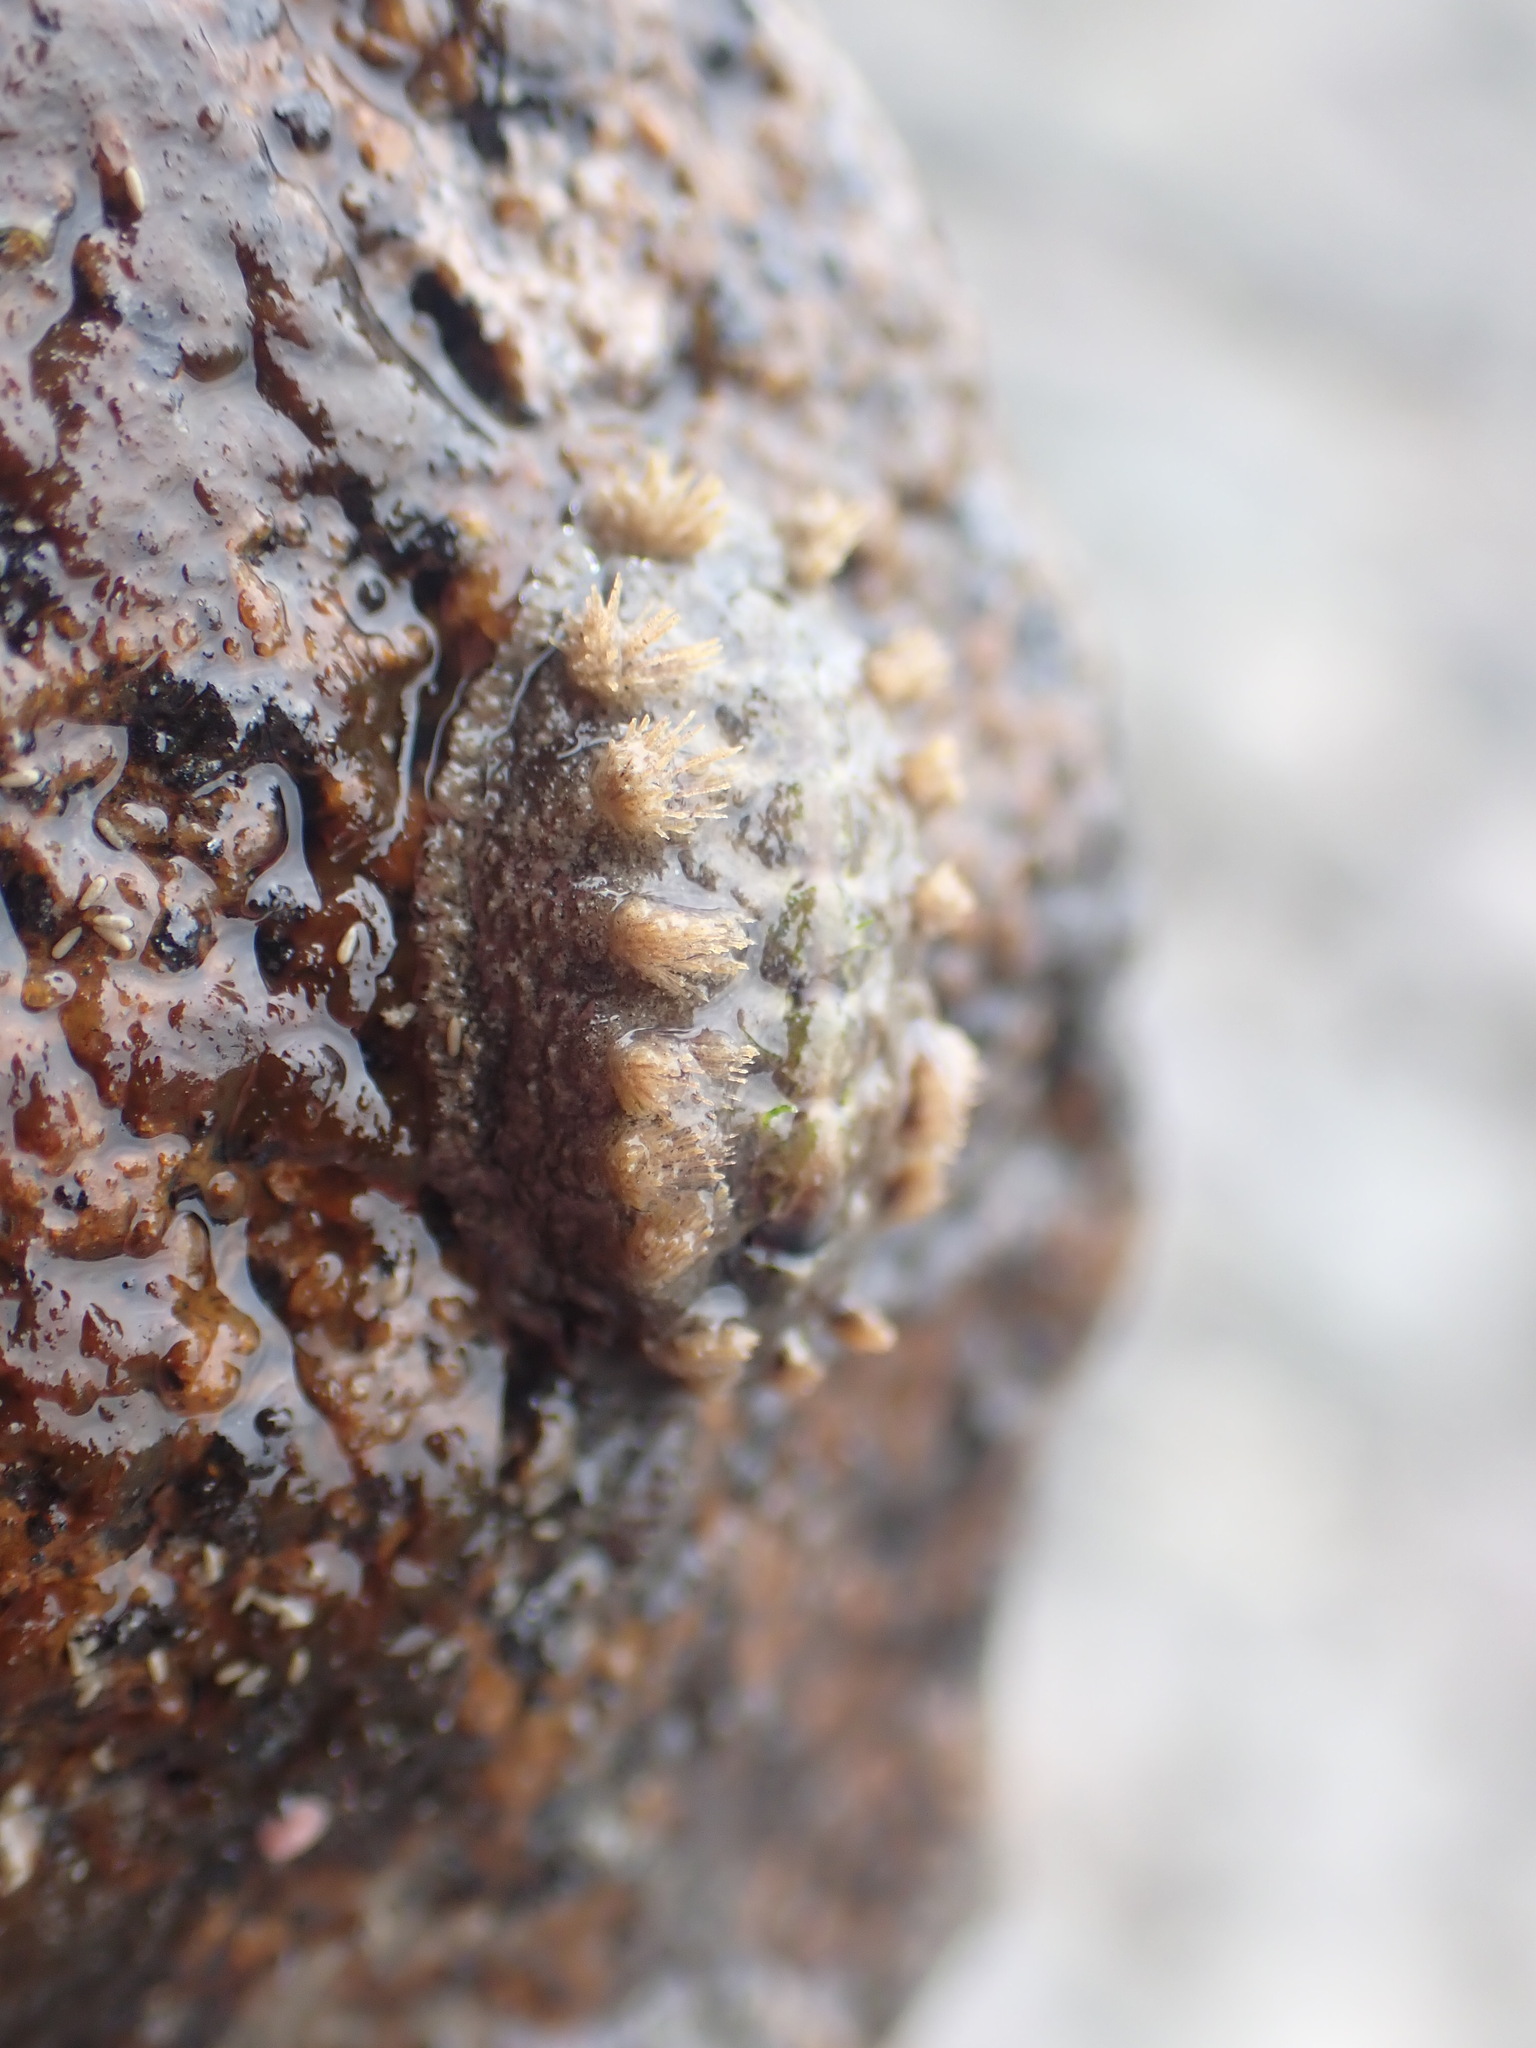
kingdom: Animalia
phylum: Mollusca
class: Polyplacophora
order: Chitonida
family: Acanthochitonidae
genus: Acanthochitona
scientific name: Acanthochitona zelandica
